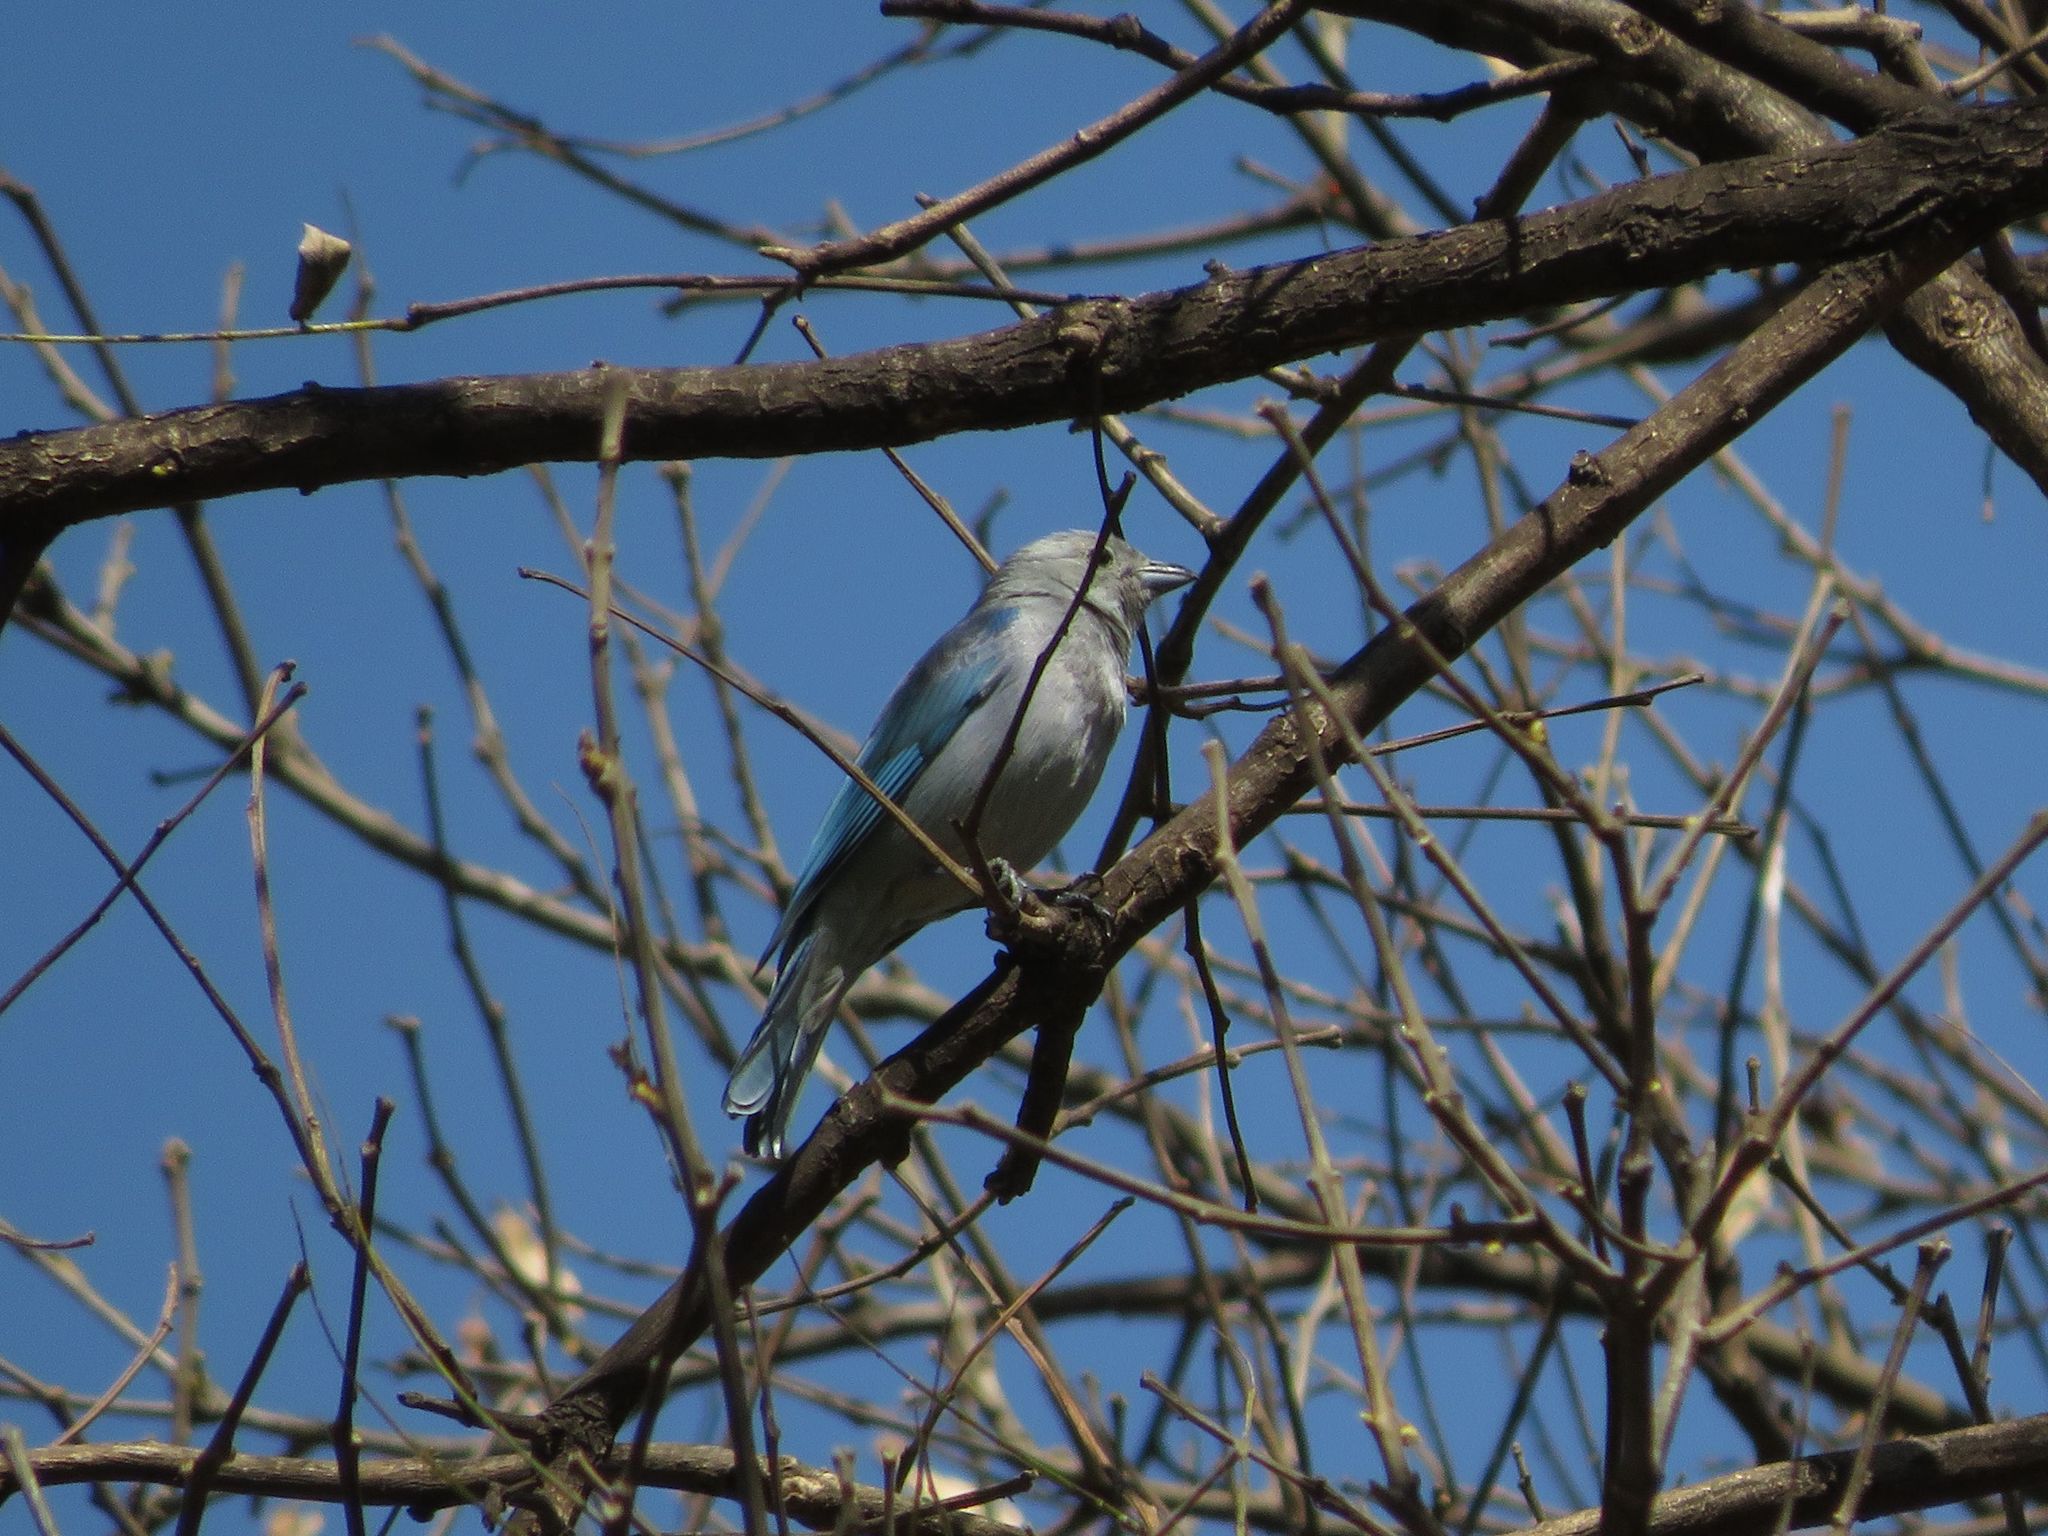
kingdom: Animalia
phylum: Chordata
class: Aves
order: Passeriformes
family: Thraupidae
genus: Thraupis
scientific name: Thraupis sayaca
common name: Sayaca tanager
